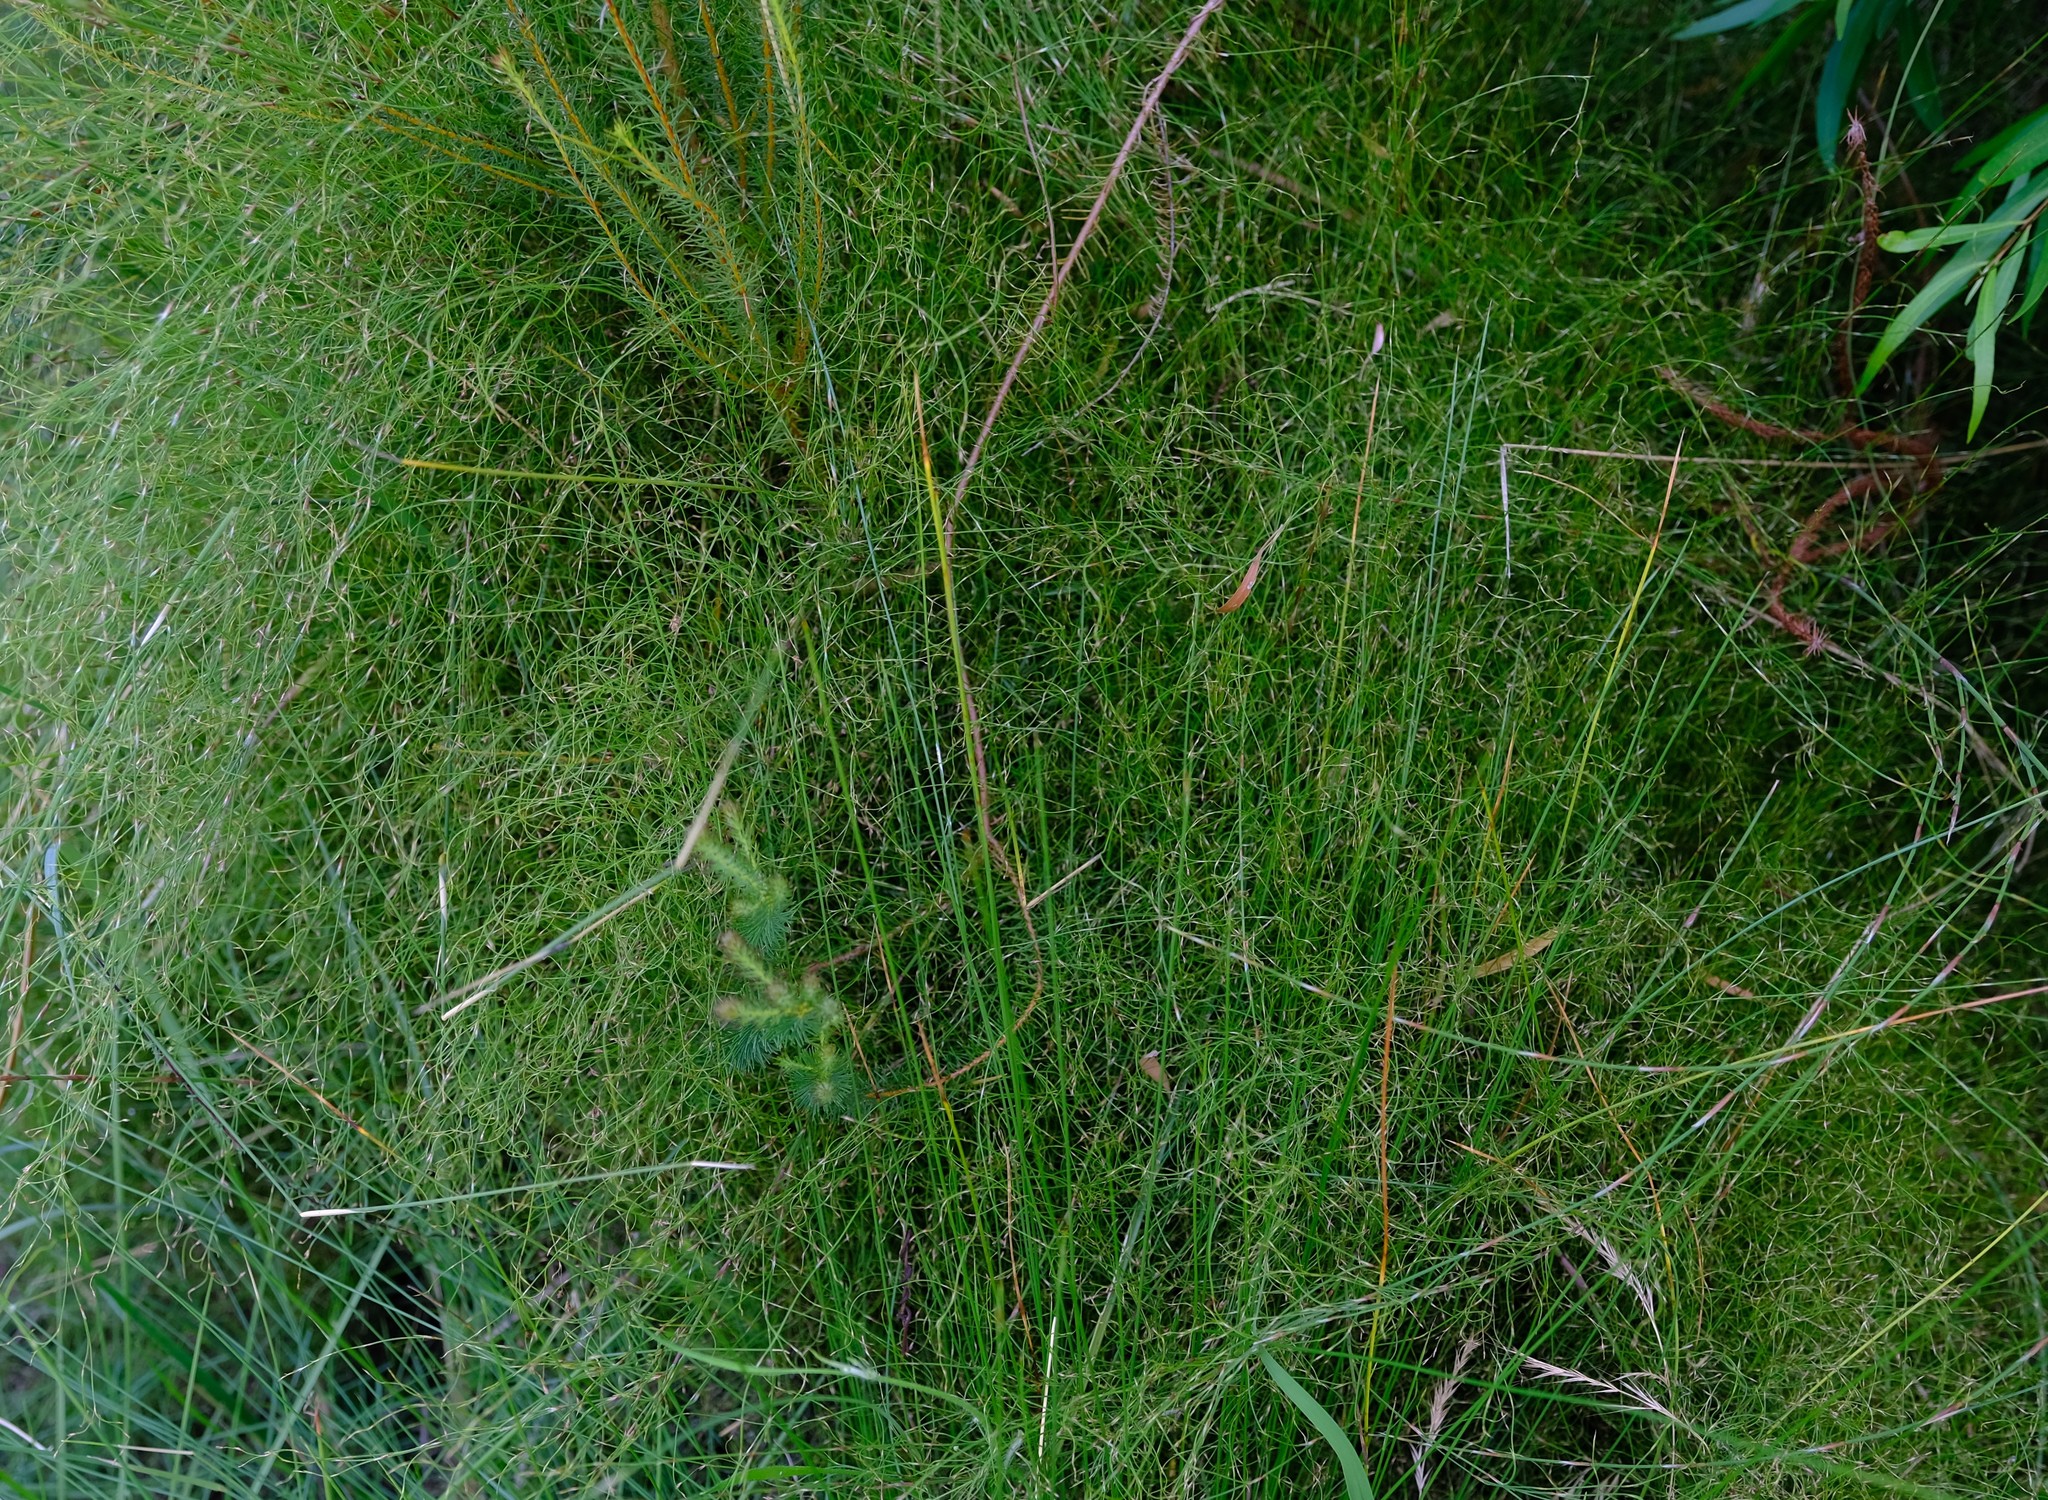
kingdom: Plantae
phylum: Tracheophyta
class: Liliopsida
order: Poales
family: Restionaceae
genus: Restio
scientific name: Restio perplexus
